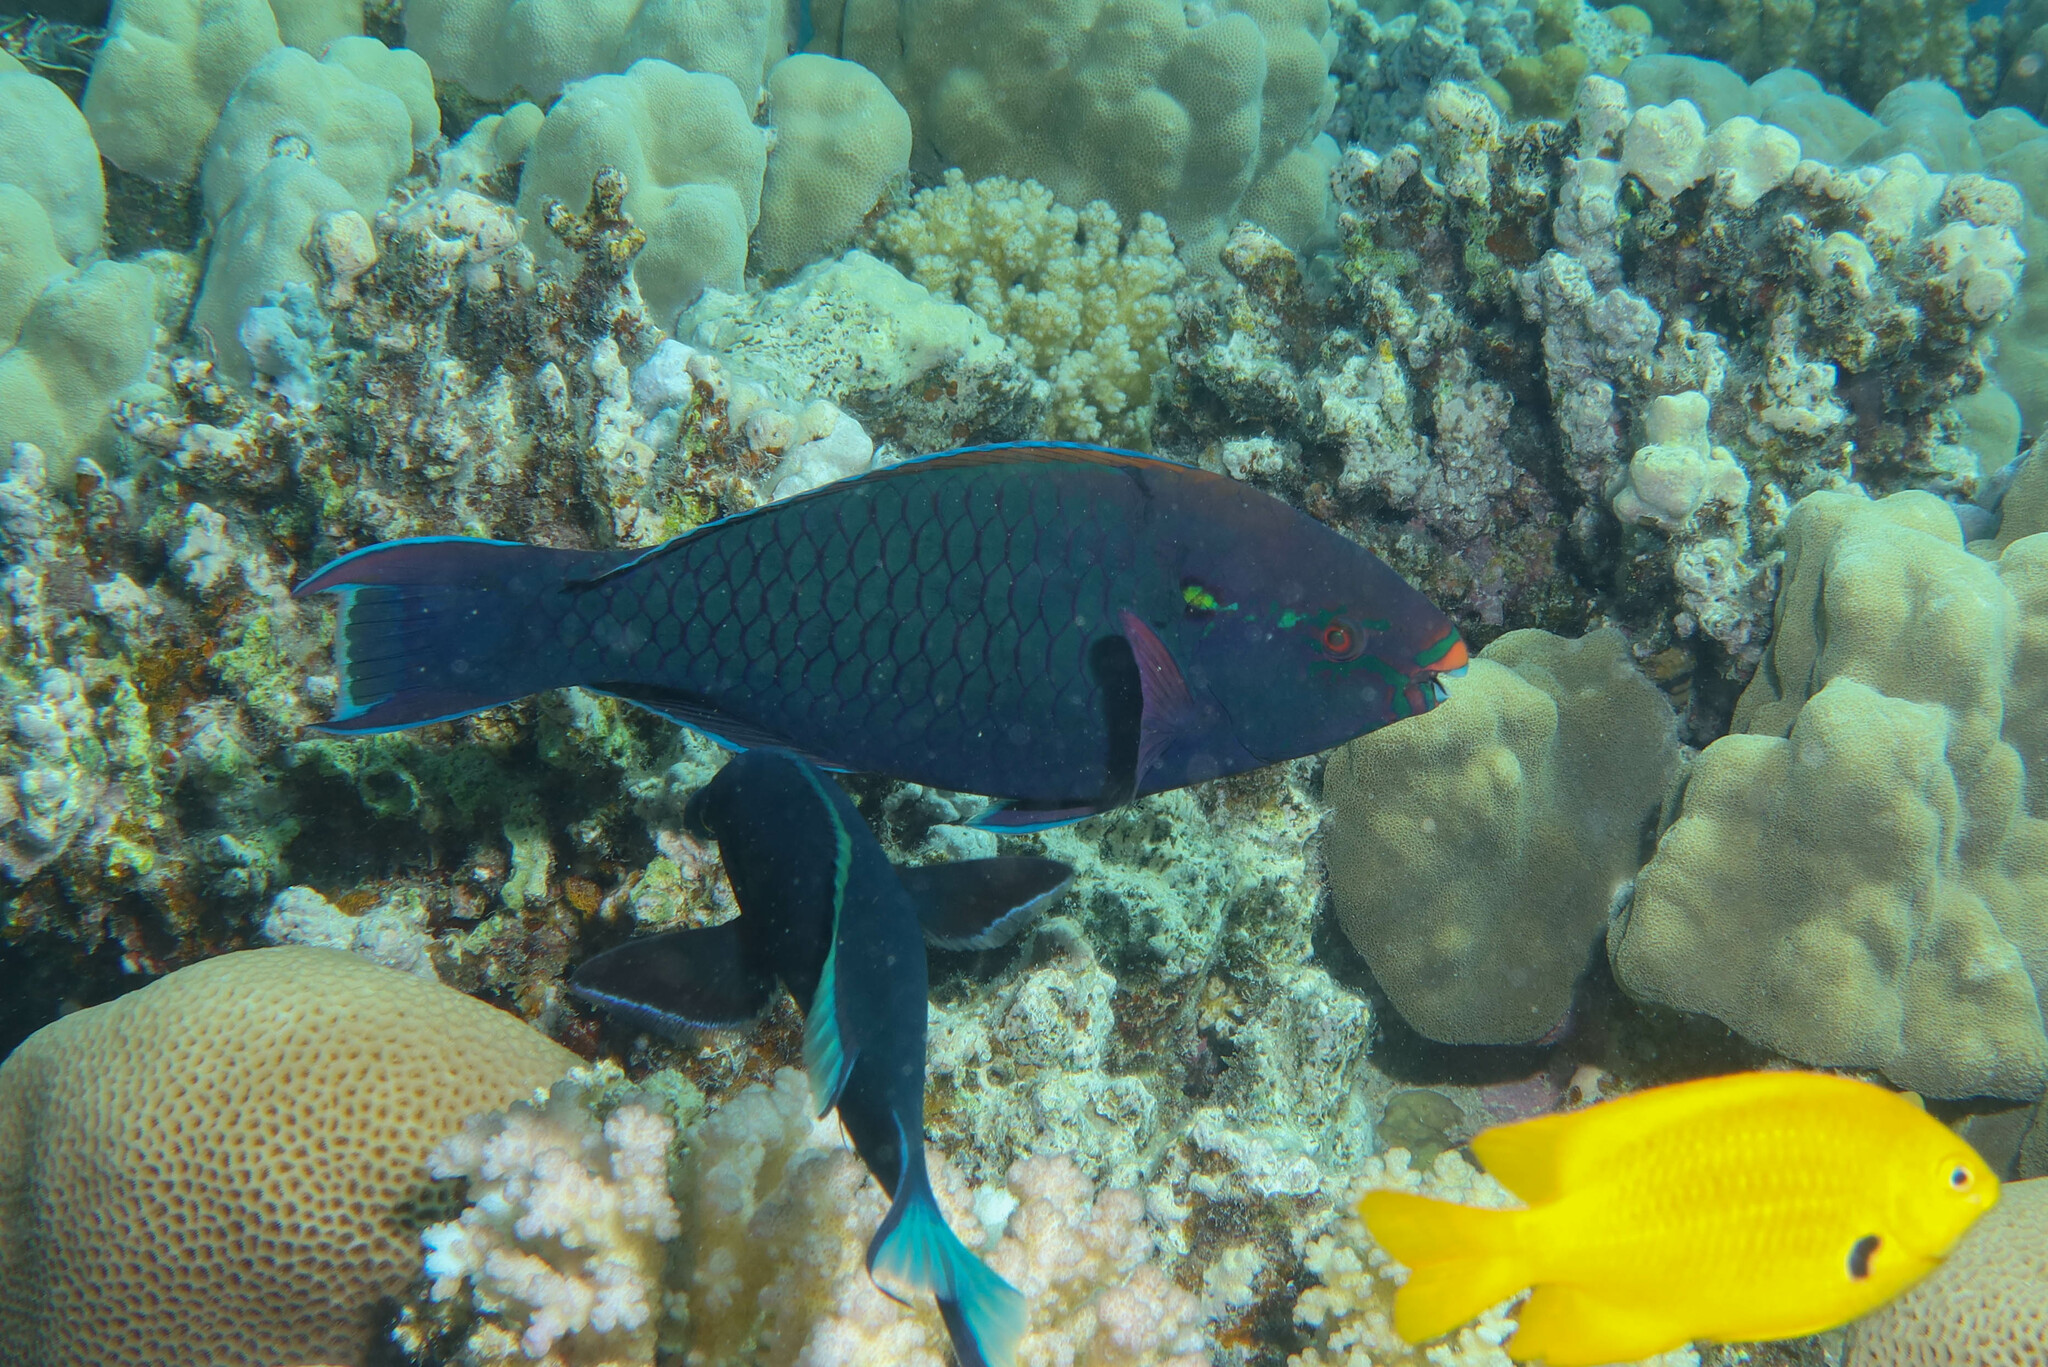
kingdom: Animalia
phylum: Chordata
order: Perciformes
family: Scaridae
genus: Scarus
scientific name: Scarus niger
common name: Dusky parrotfish
